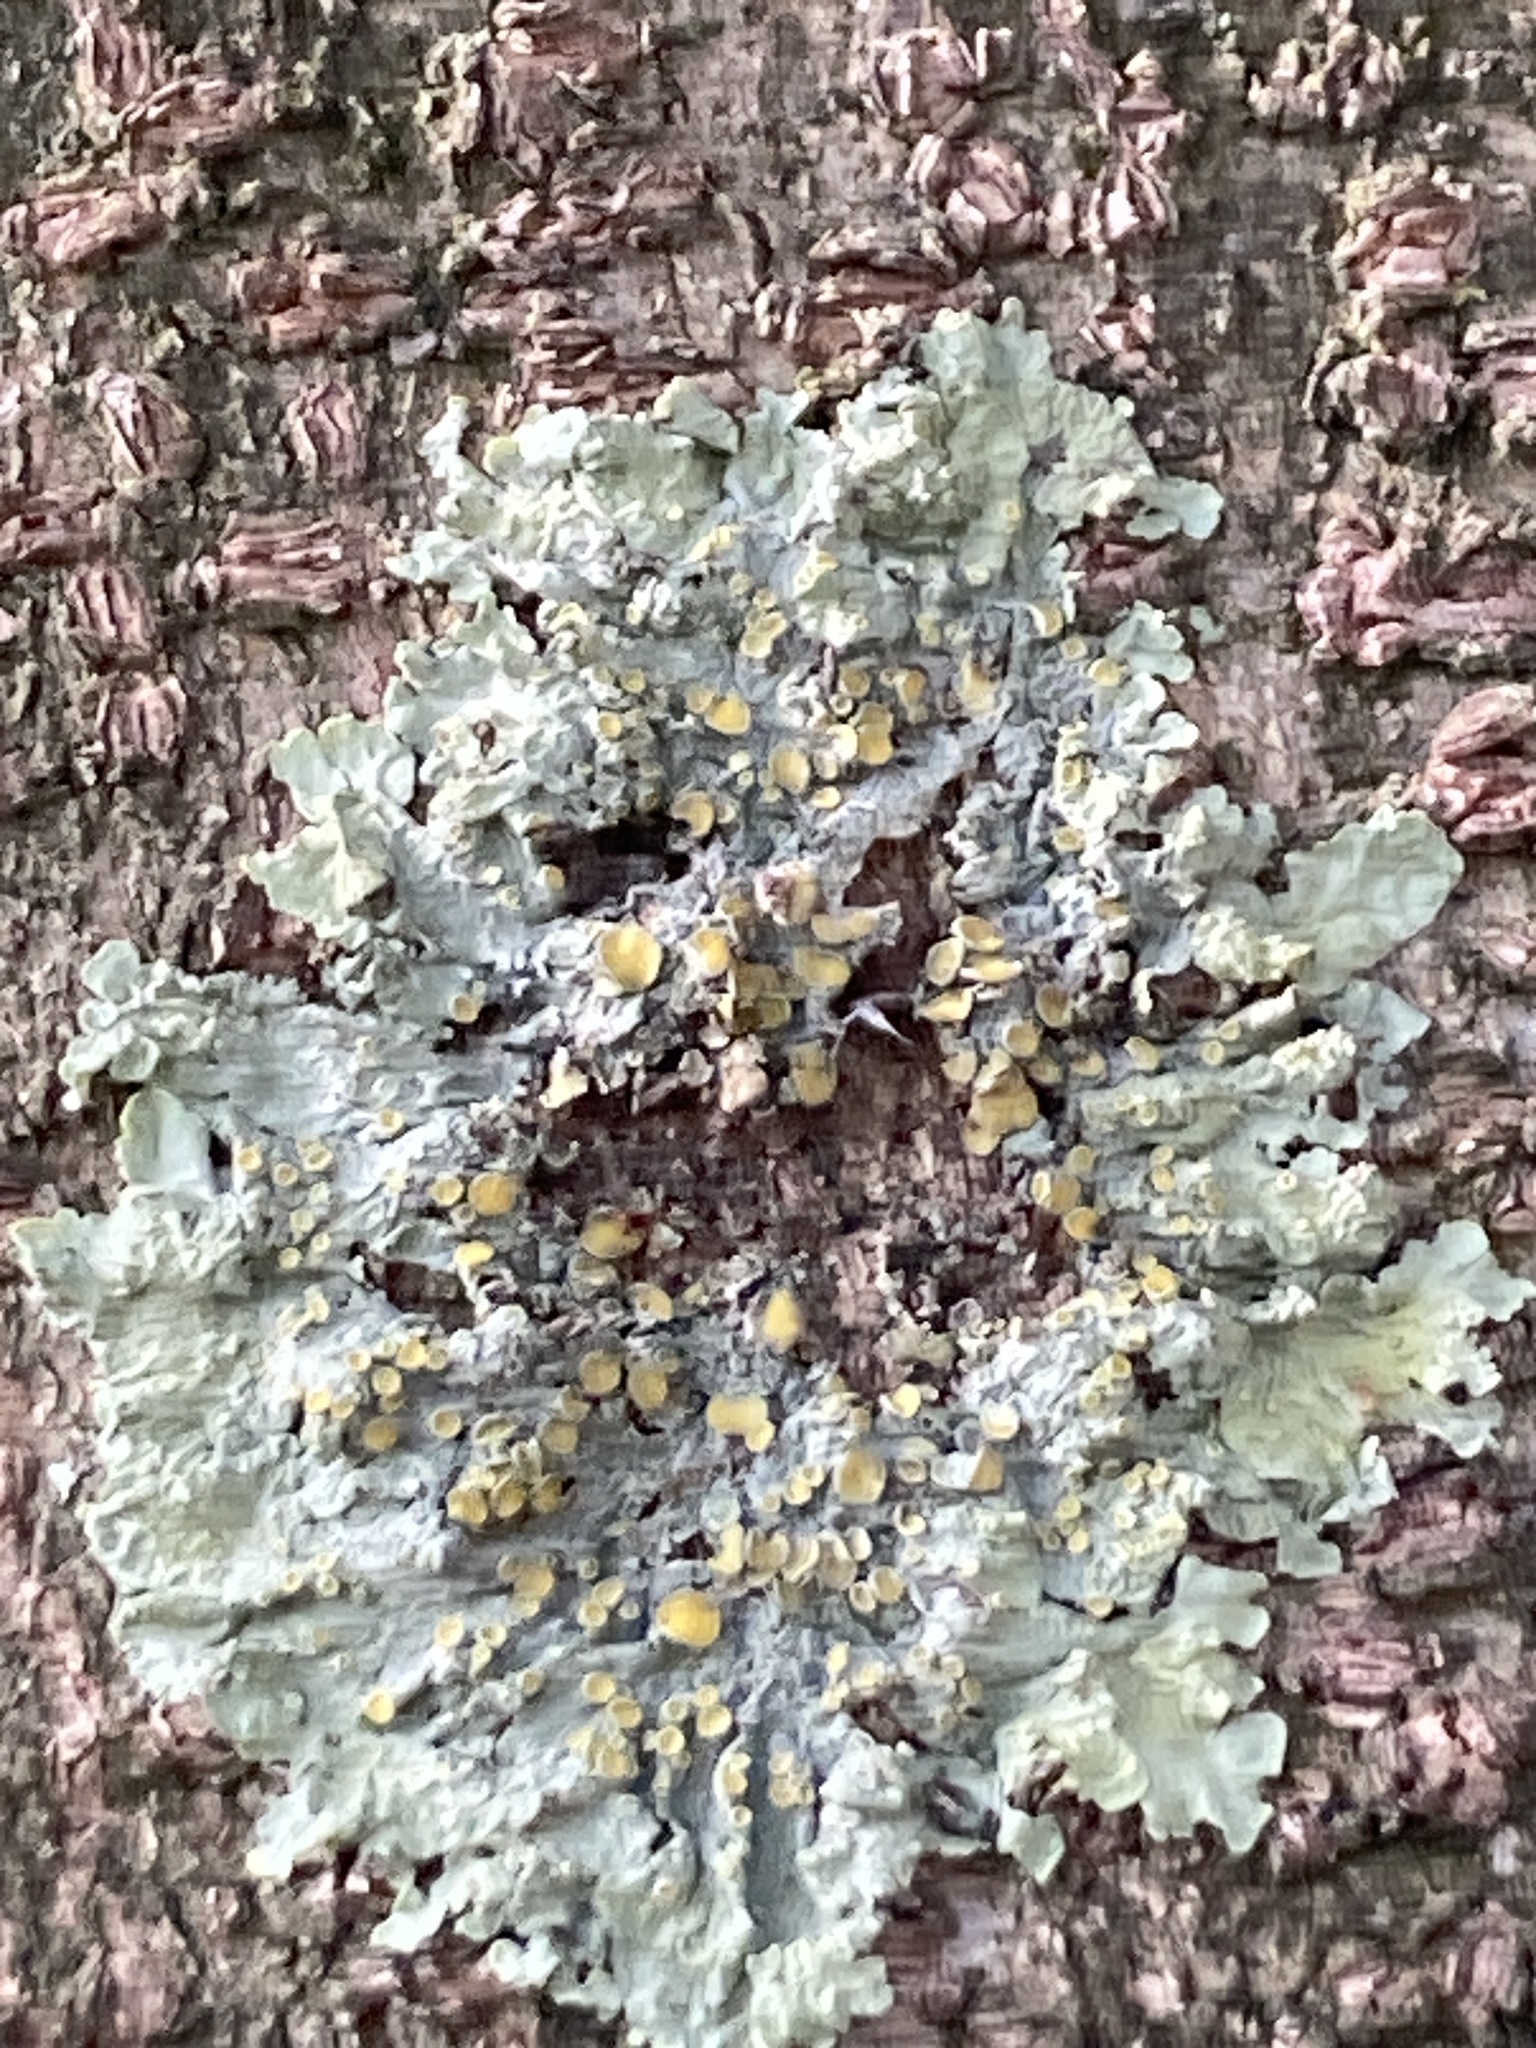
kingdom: Fungi
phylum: Ascomycota
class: Lecanoromycetes
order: Teloschistales
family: Teloschistaceae
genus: Xanthoria
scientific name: Xanthoria parietina
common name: Common orange lichen
